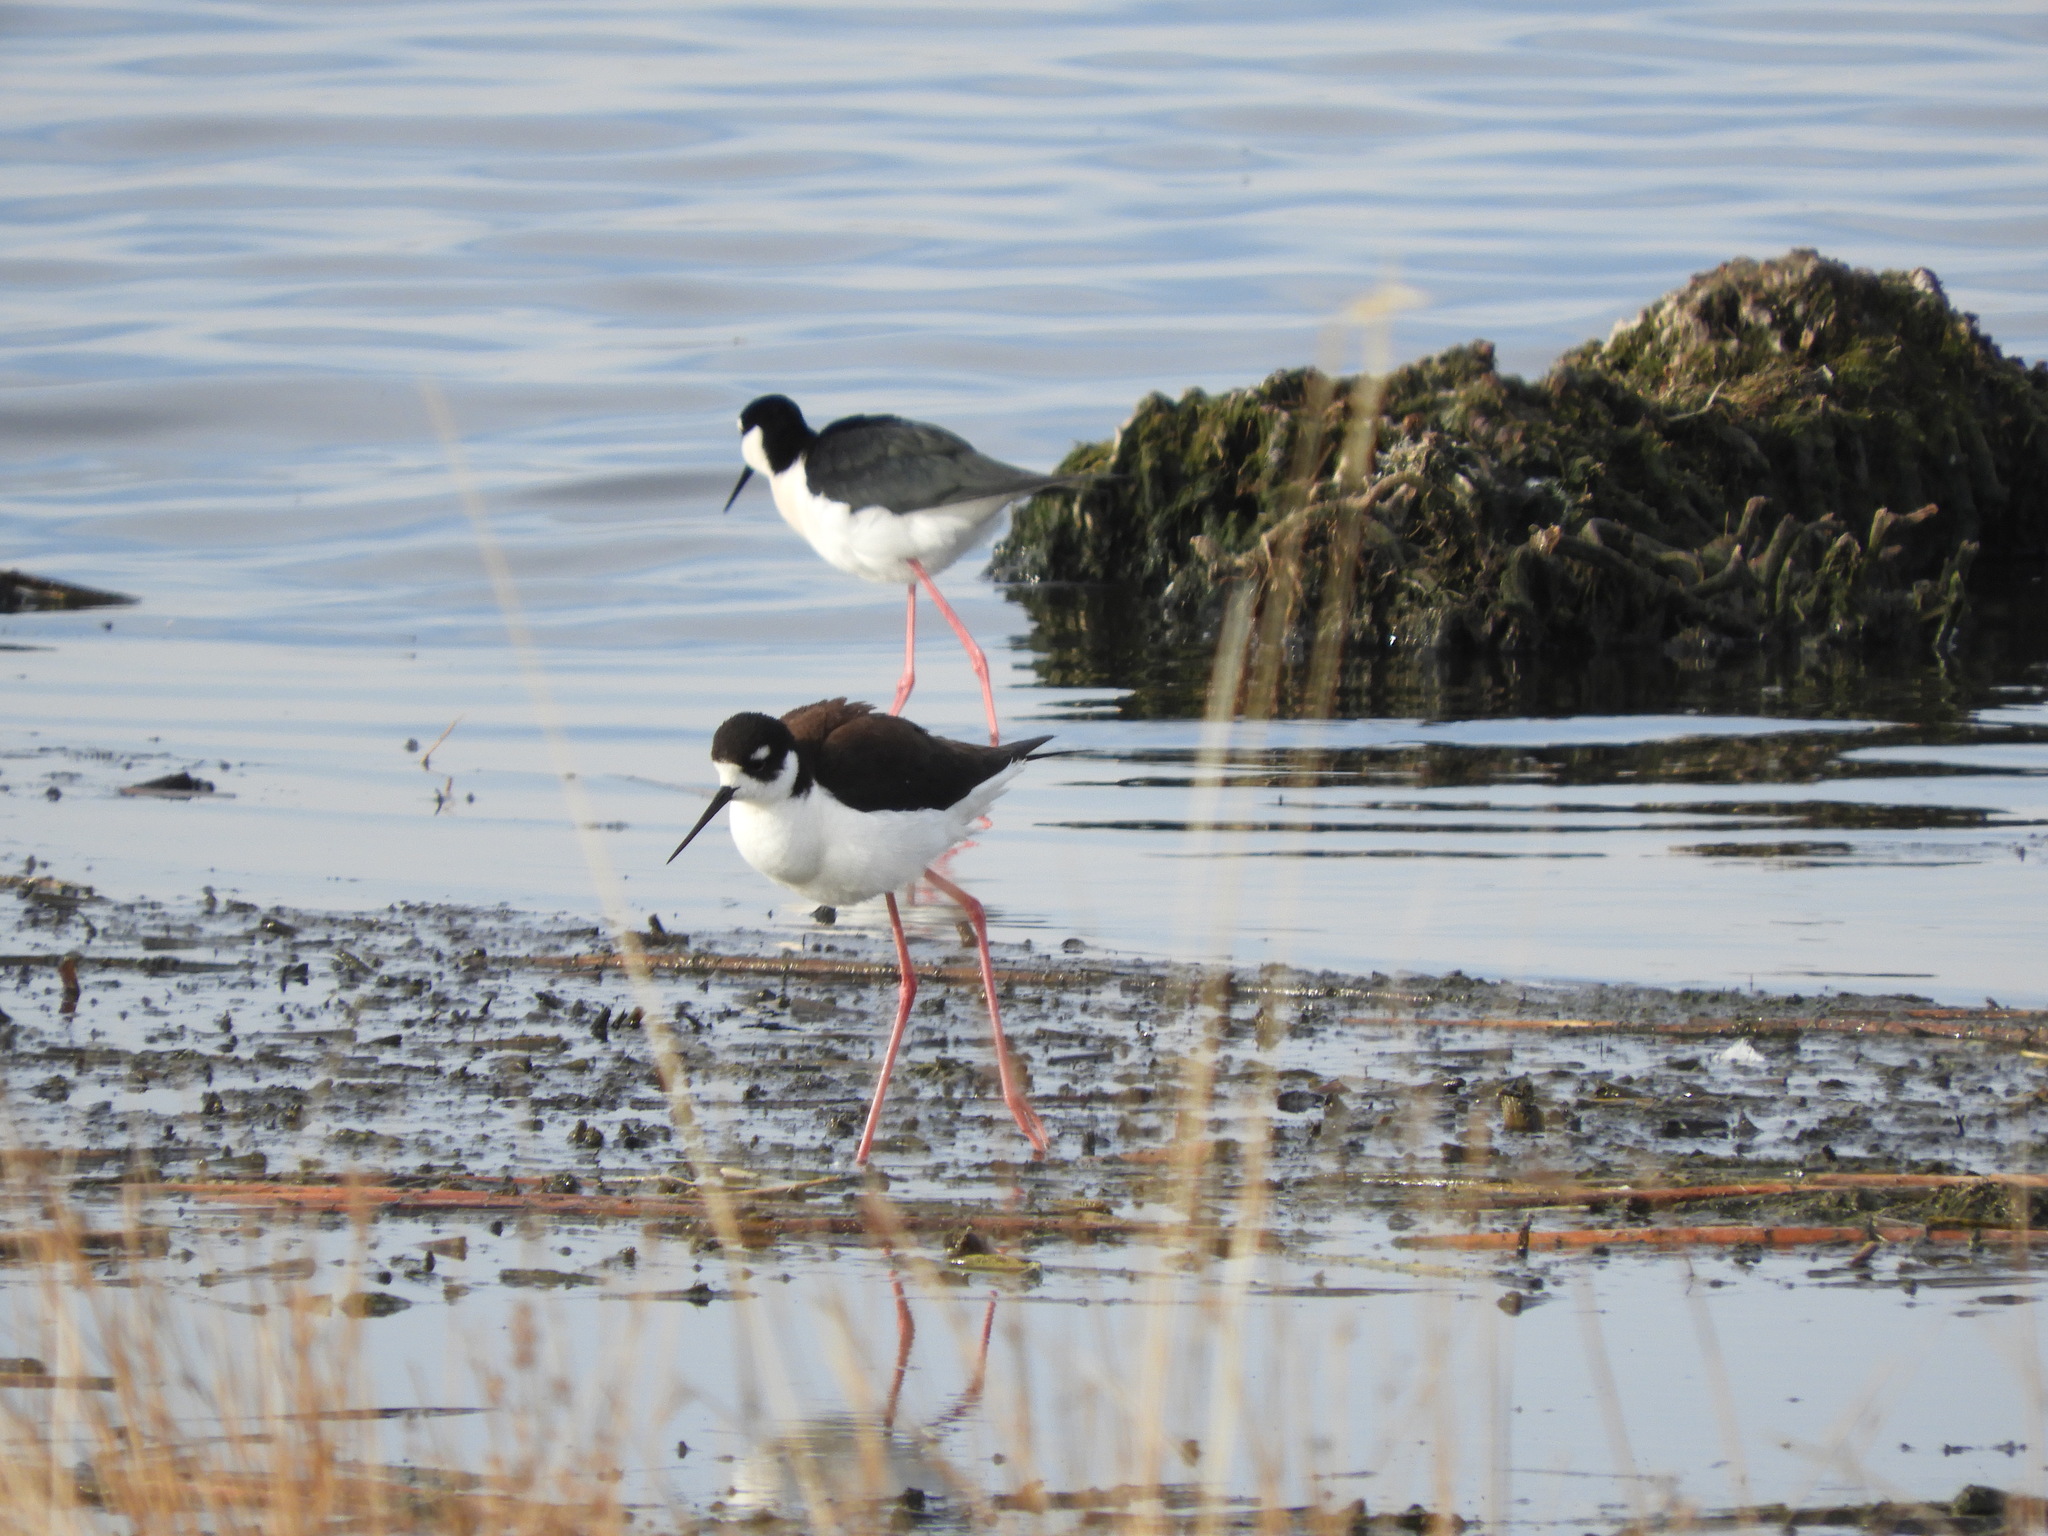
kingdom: Animalia
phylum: Chordata
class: Aves
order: Charadriiformes
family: Recurvirostridae
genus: Himantopus
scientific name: Himantopus mexicanus
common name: Black-necked stilt
